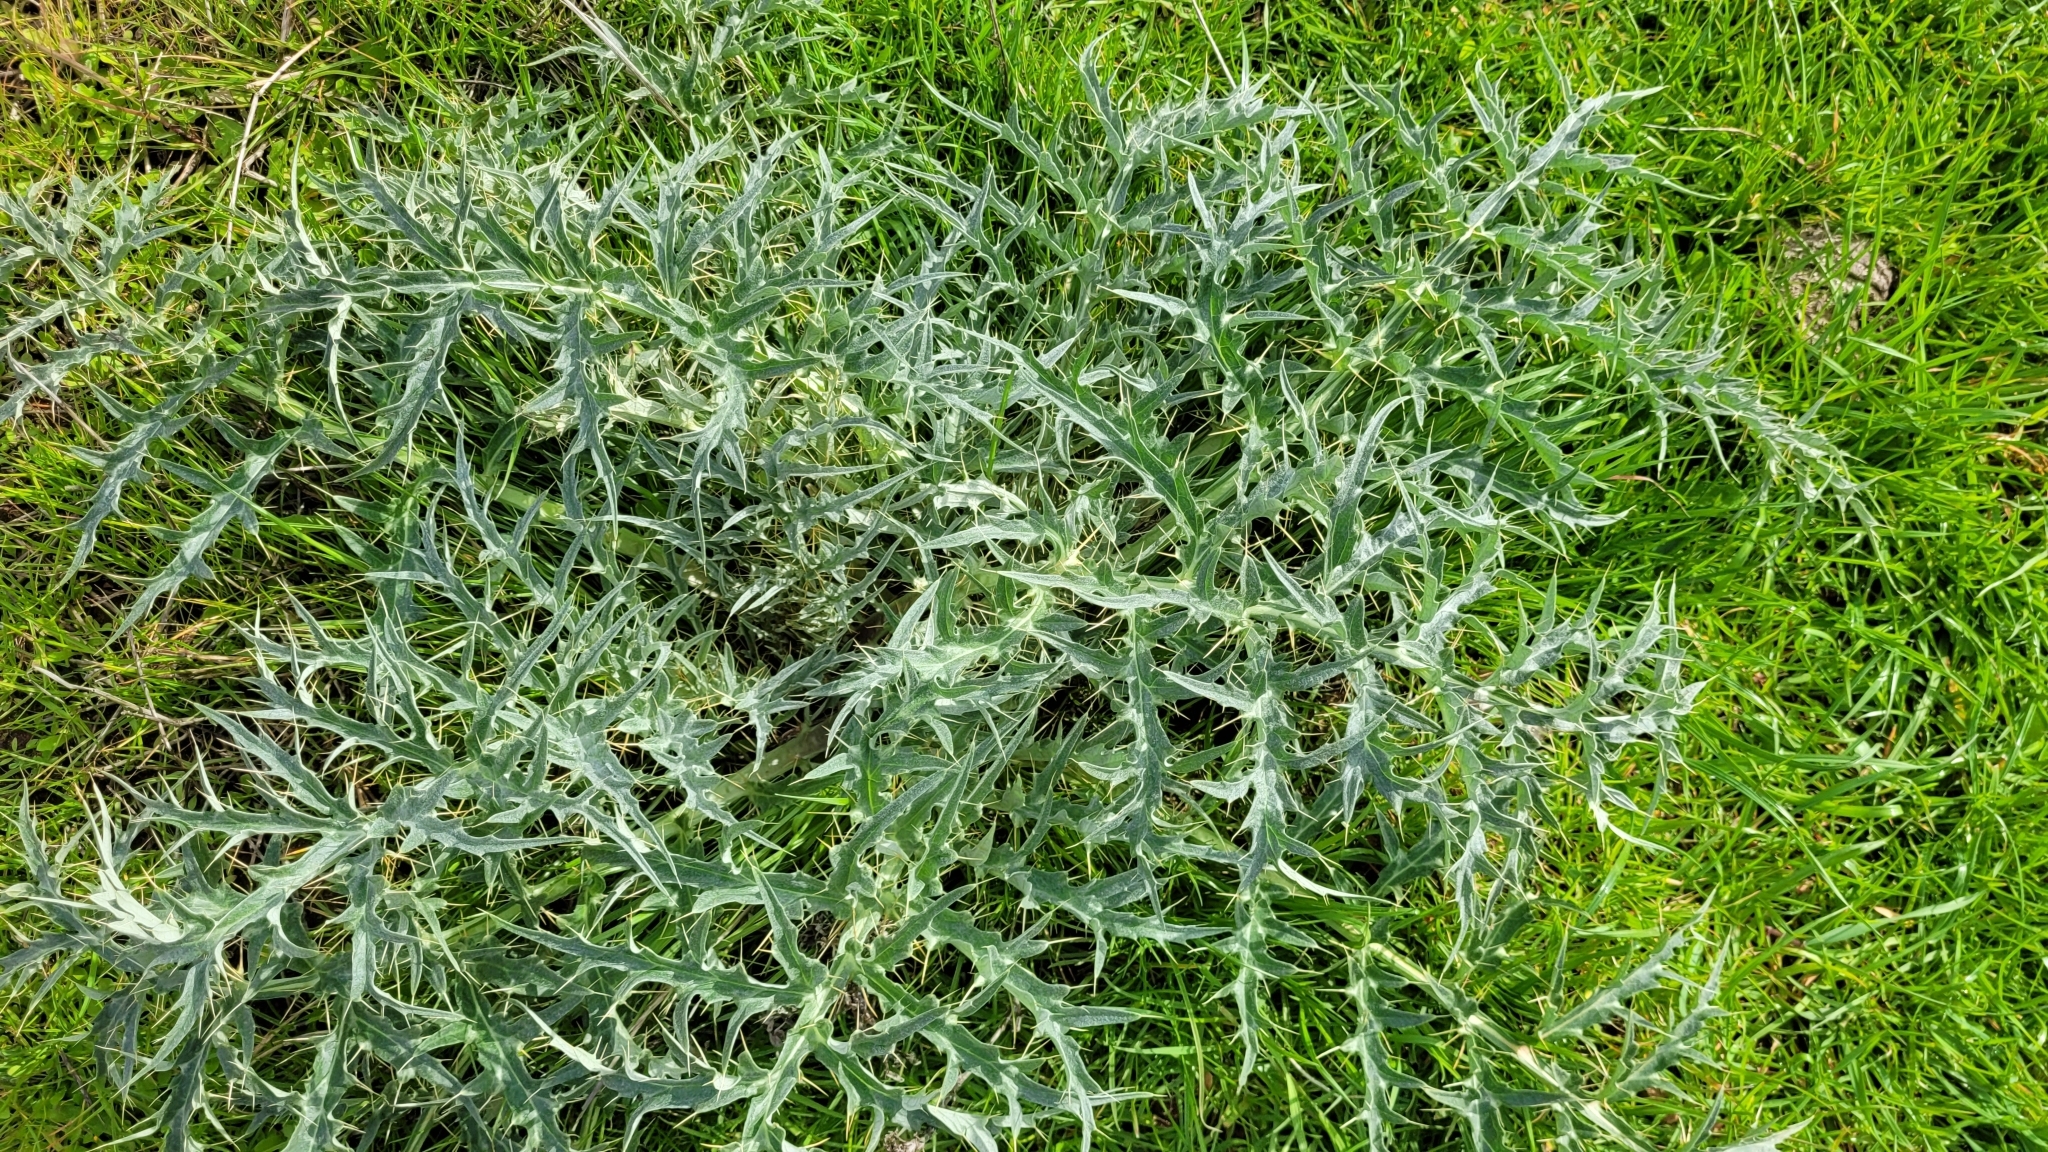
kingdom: Plantae
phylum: Tracheophyta
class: Magnoliopsida
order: Asterales
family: Asteraceae
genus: Cynara
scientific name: Cynara cardunculus
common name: Globe artichoke
